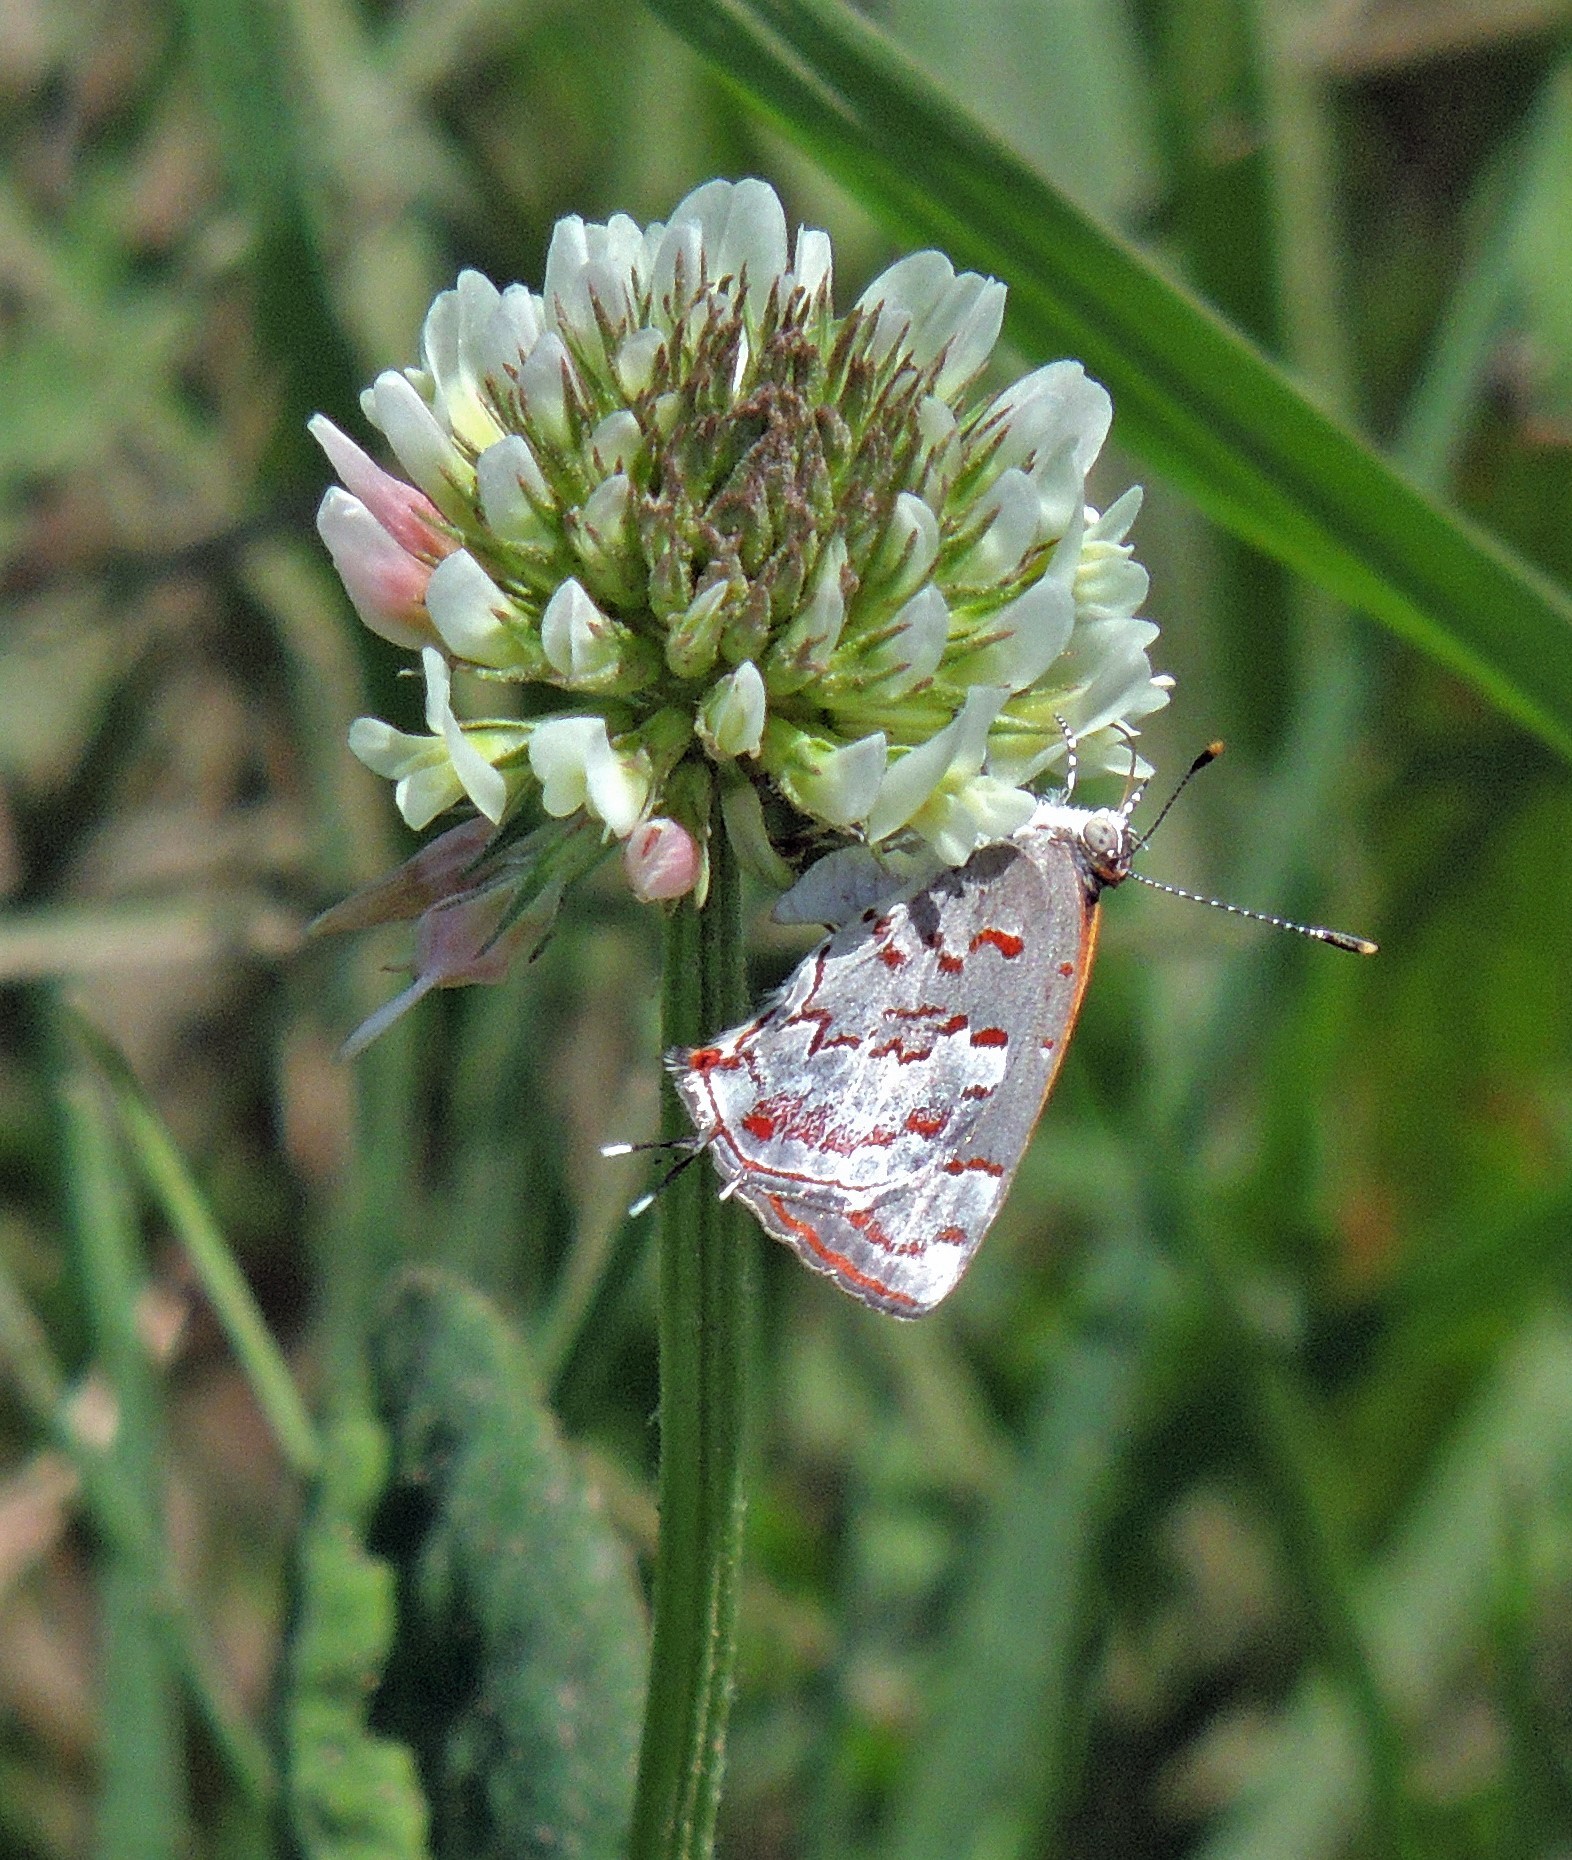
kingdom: Plantae
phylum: Tracheophyta
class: Magnoliopsida
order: Fabales
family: Fabaceae
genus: Trifolium
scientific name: Trifolium repens
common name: White clover
